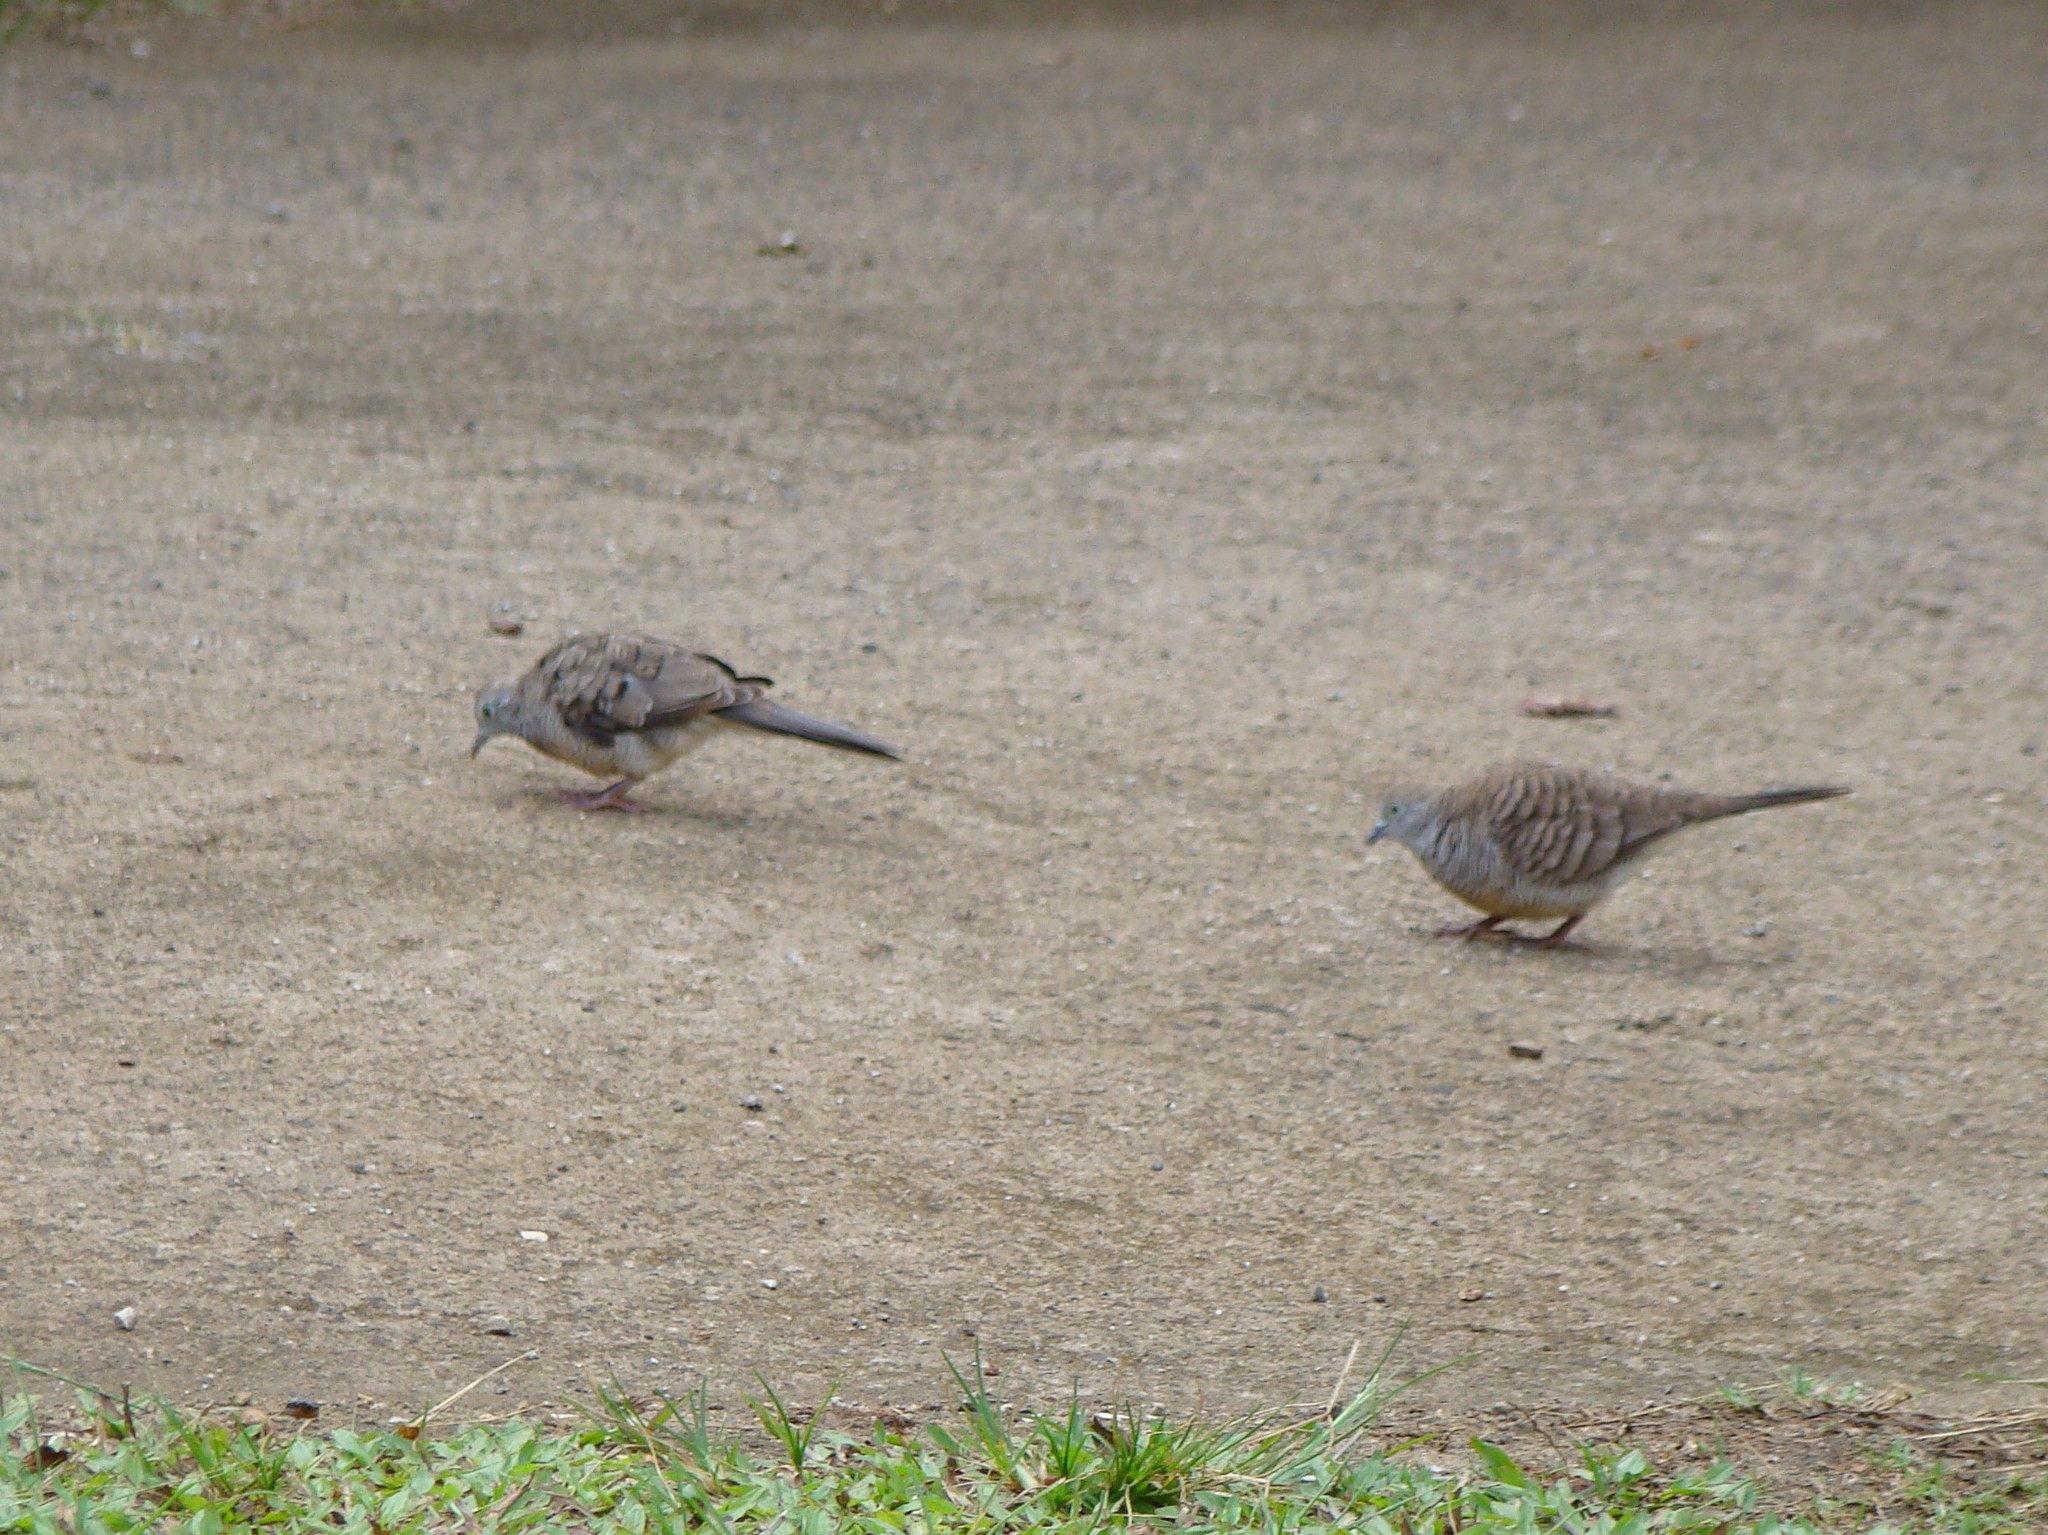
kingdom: Animalia
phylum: Chordata
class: Aves
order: Columbiformes
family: Columbidae
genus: Geopelia
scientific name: Geopelia striata
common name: Zebra dove
